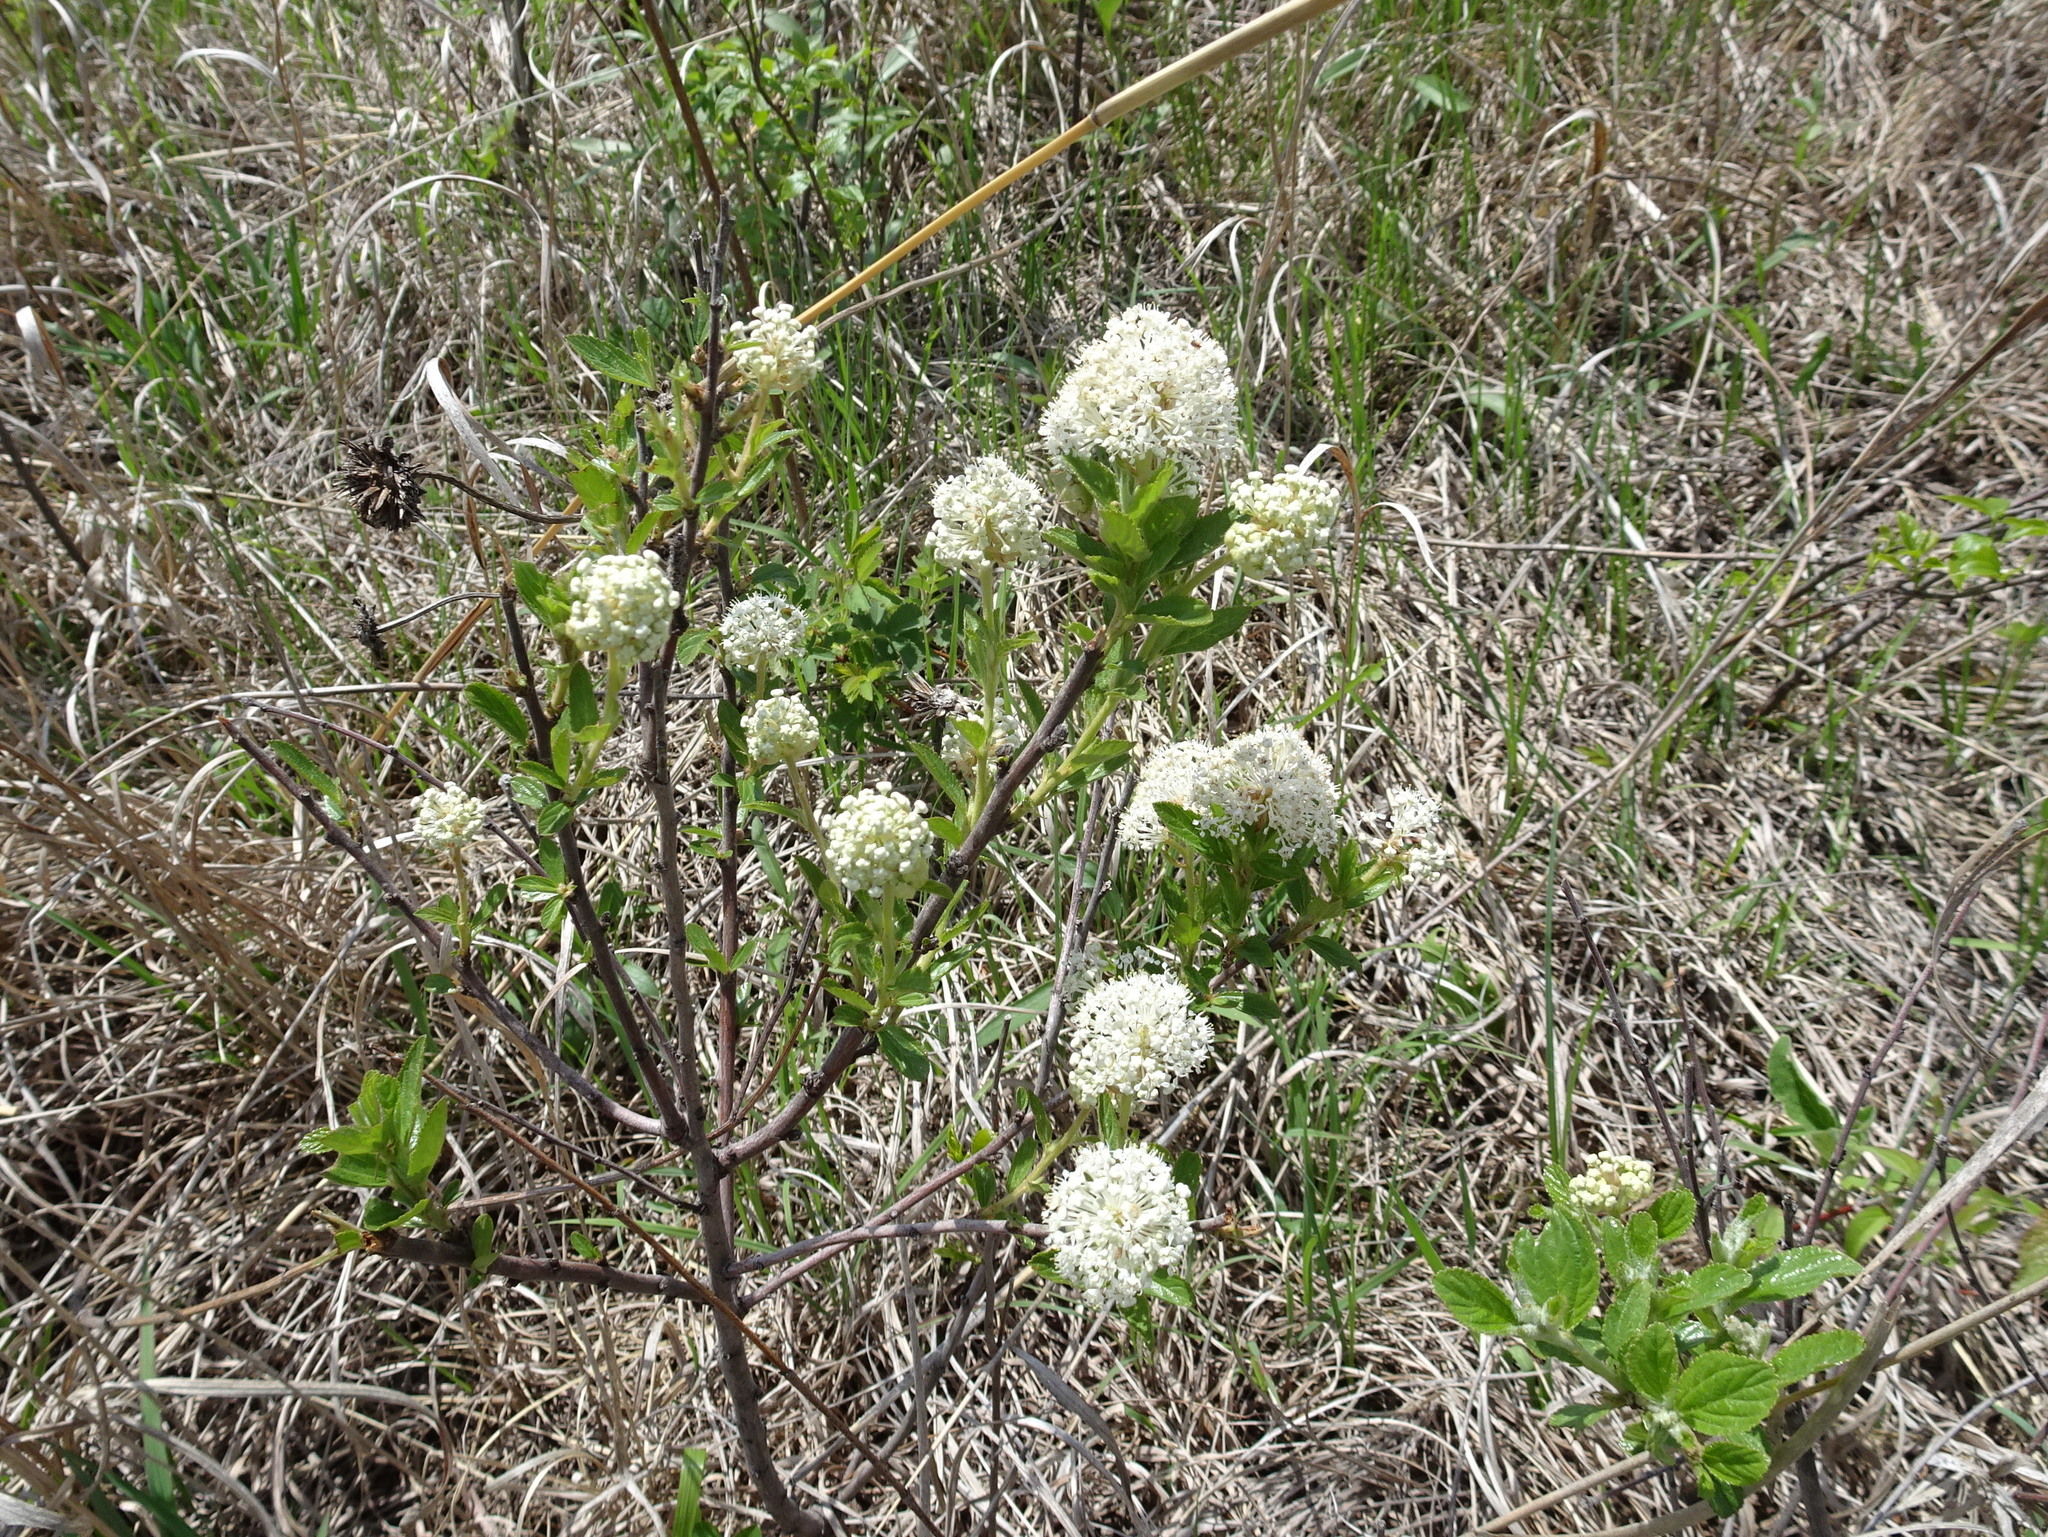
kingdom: Plantae
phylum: Tracheophyta
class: Magnoliopsida
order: Rosales
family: Rhamnaceae
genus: Ceanothus
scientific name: Ceanothus herbaceus
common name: Inland ceanothus
